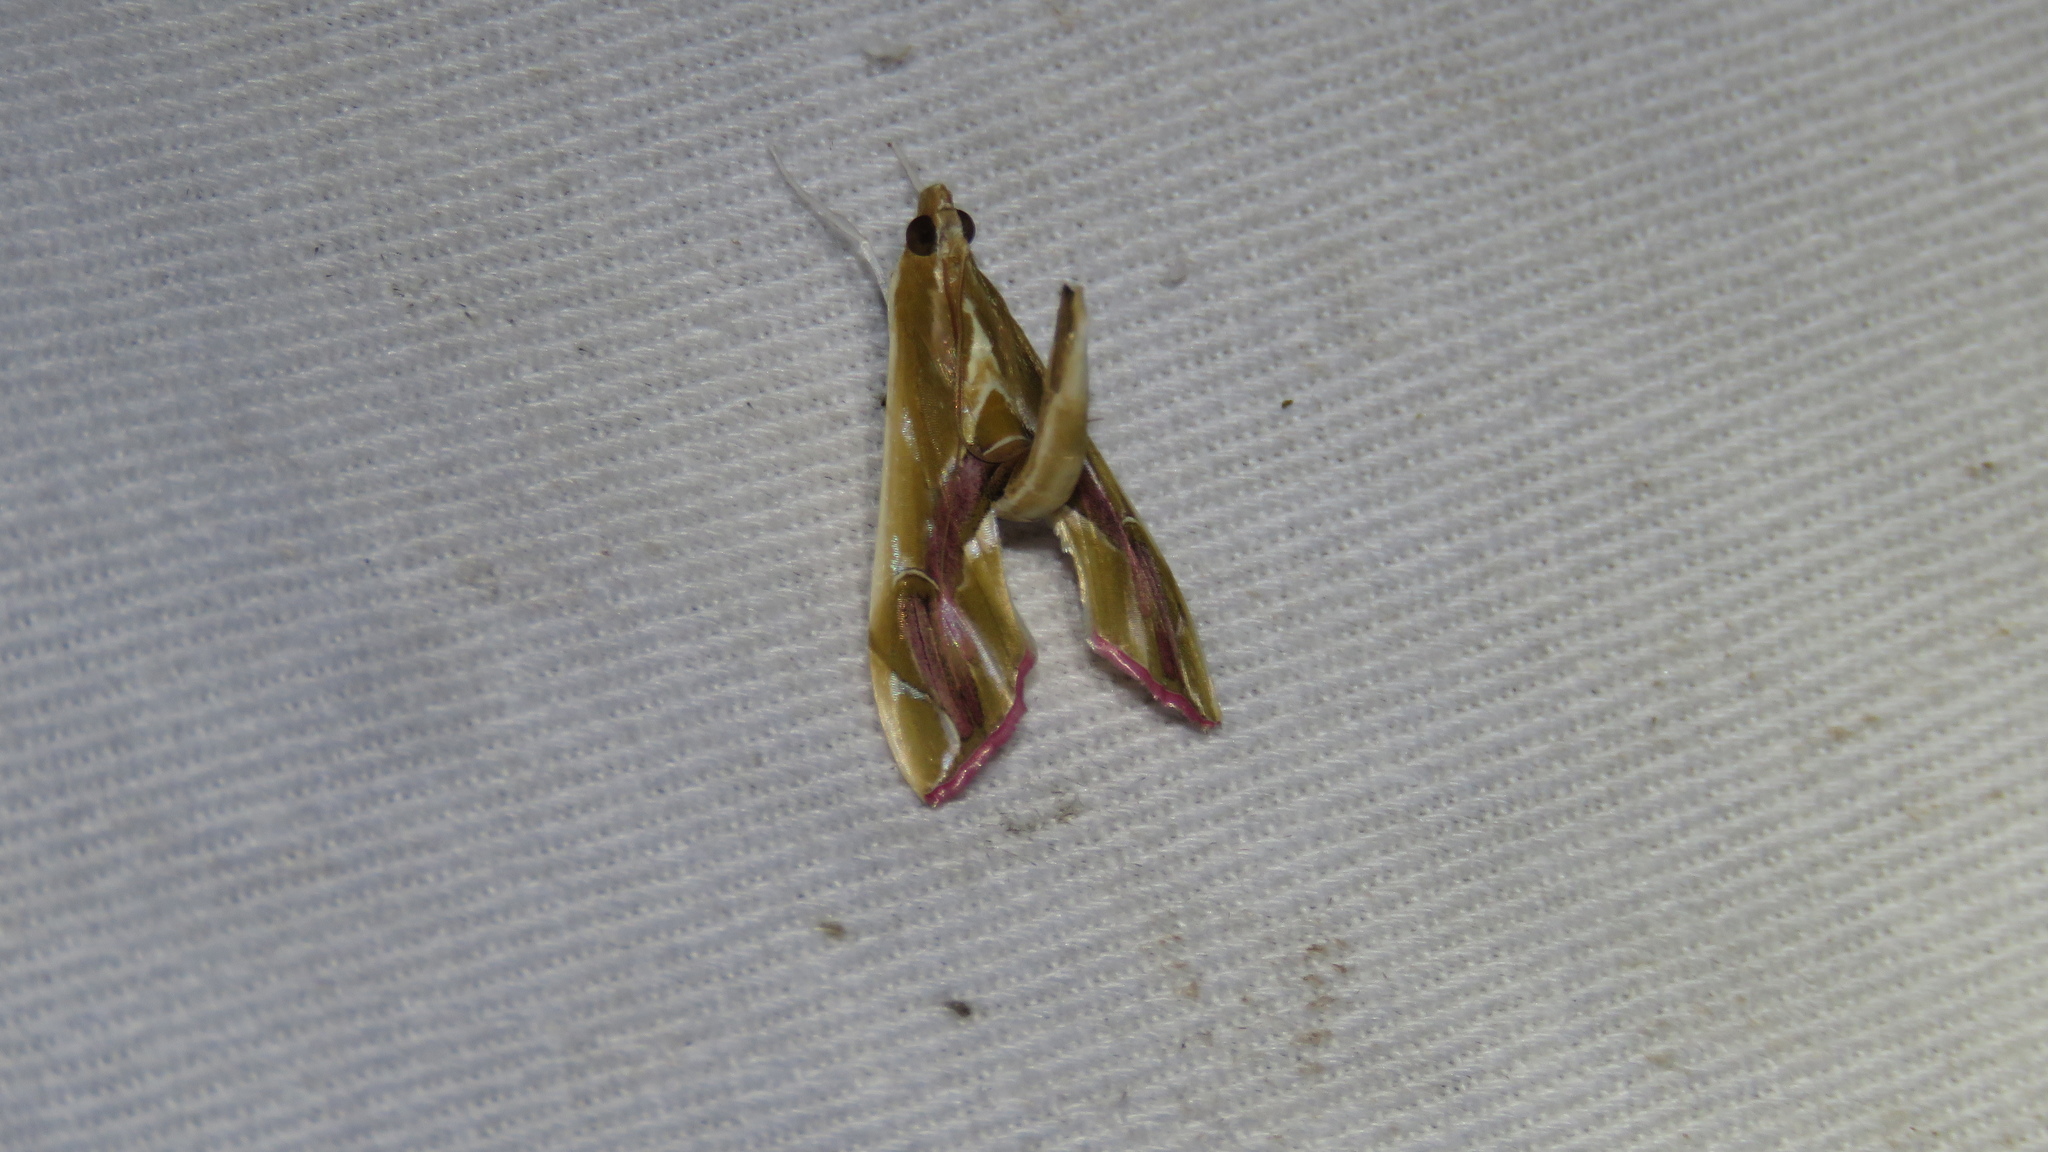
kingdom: Animalia
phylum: Arthropoda
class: Insecta
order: Lepidoptera
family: Crambidae
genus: Agathodes
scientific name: Agathodes ostentalis
